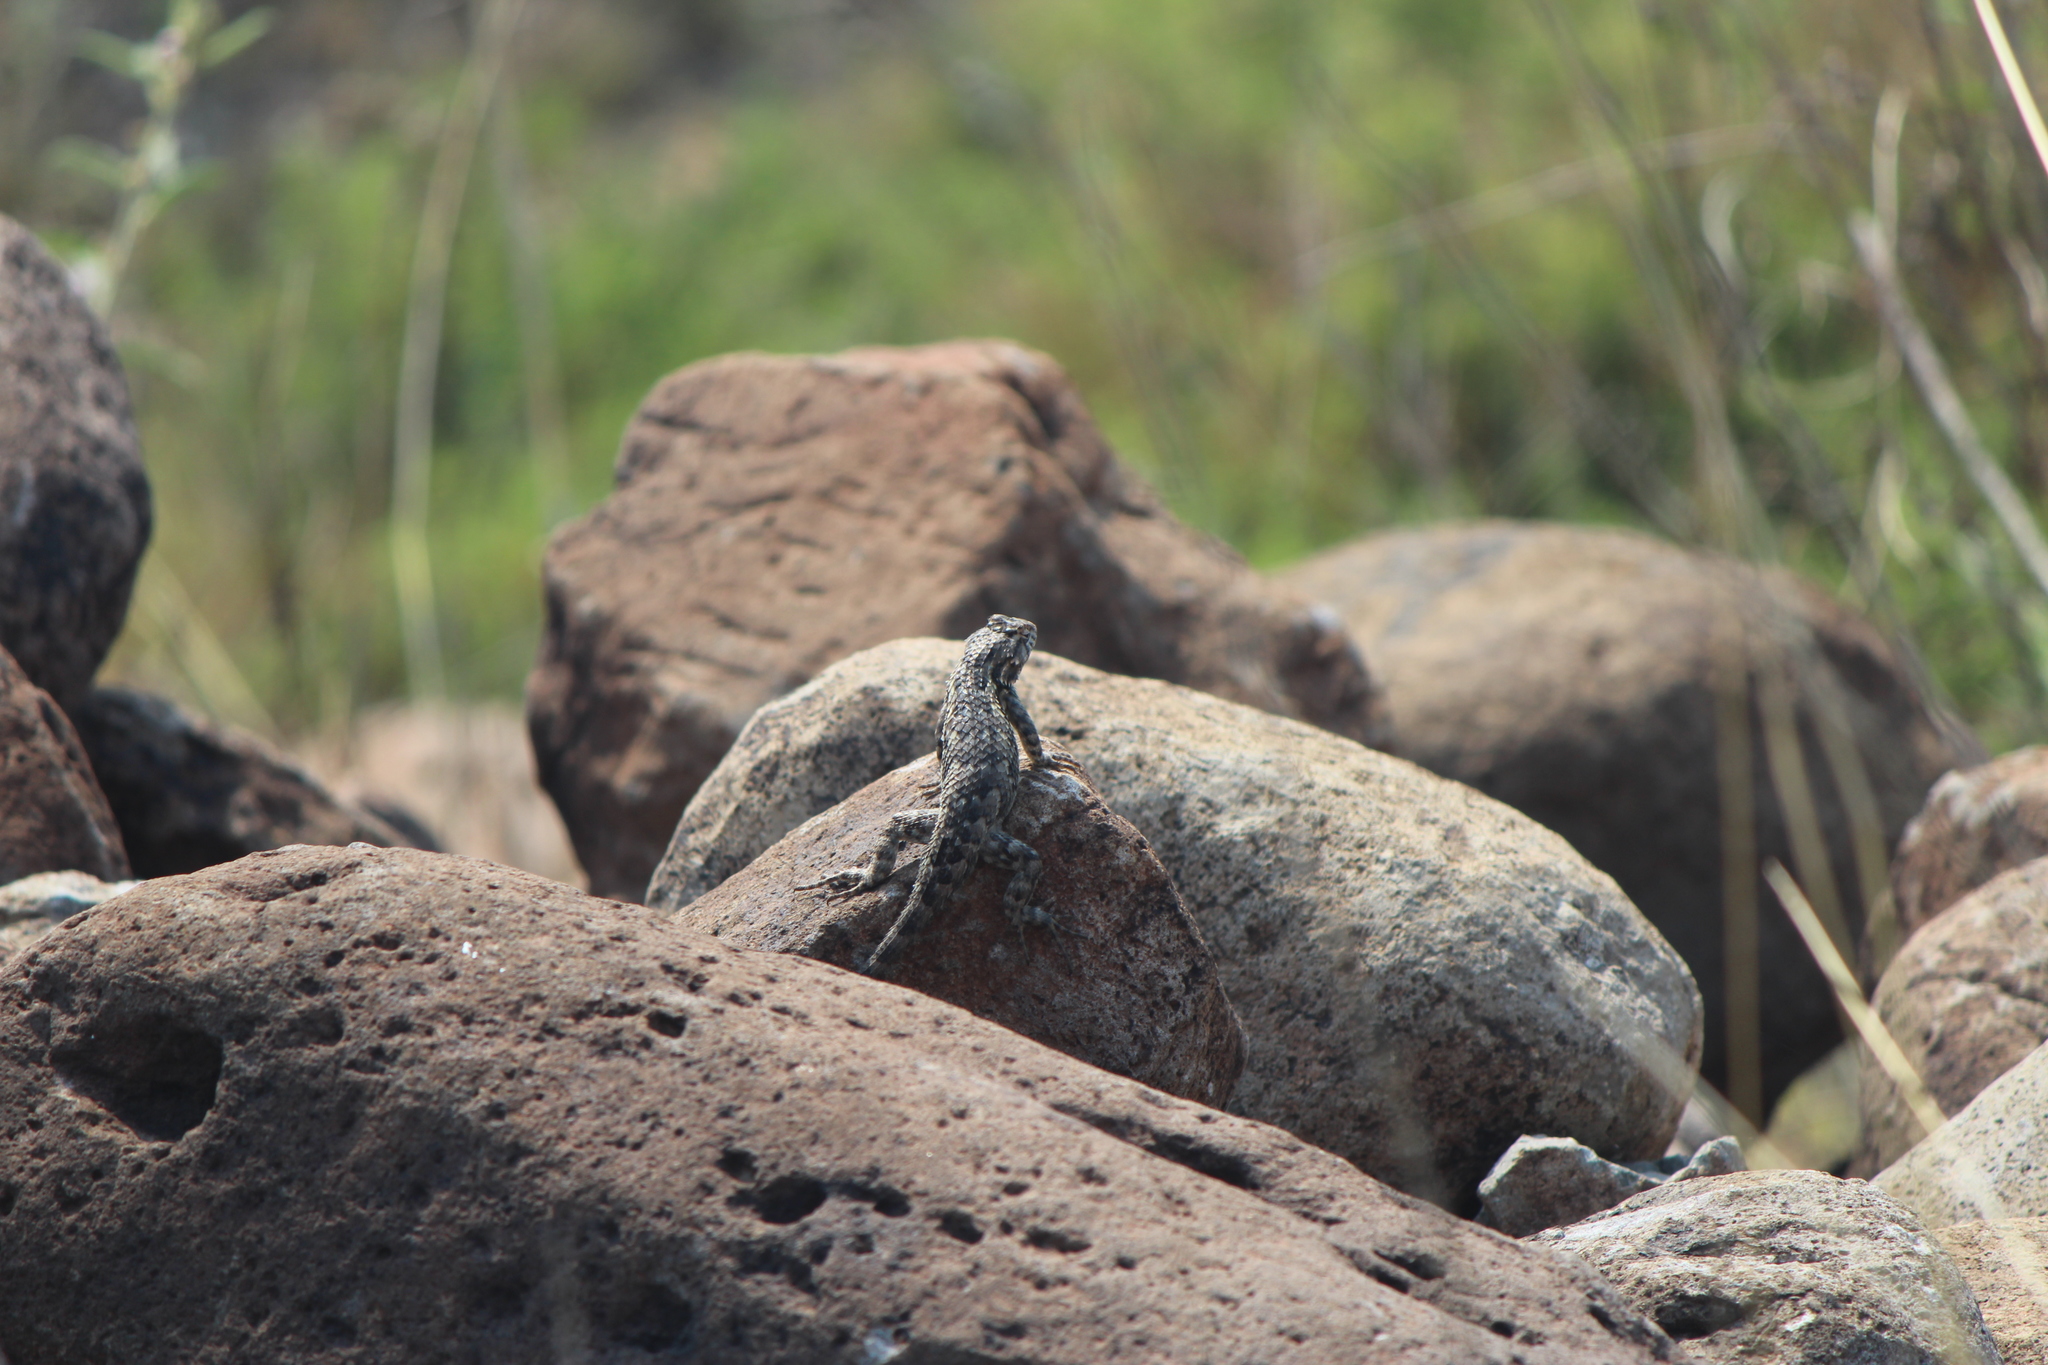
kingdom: Animalia
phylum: Chordata
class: Squamata
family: Phrynosomatidae
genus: Sceloporus
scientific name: Sceloporus spinosus
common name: Blue-spotted spiny lizard [caeruleopunctatus]
